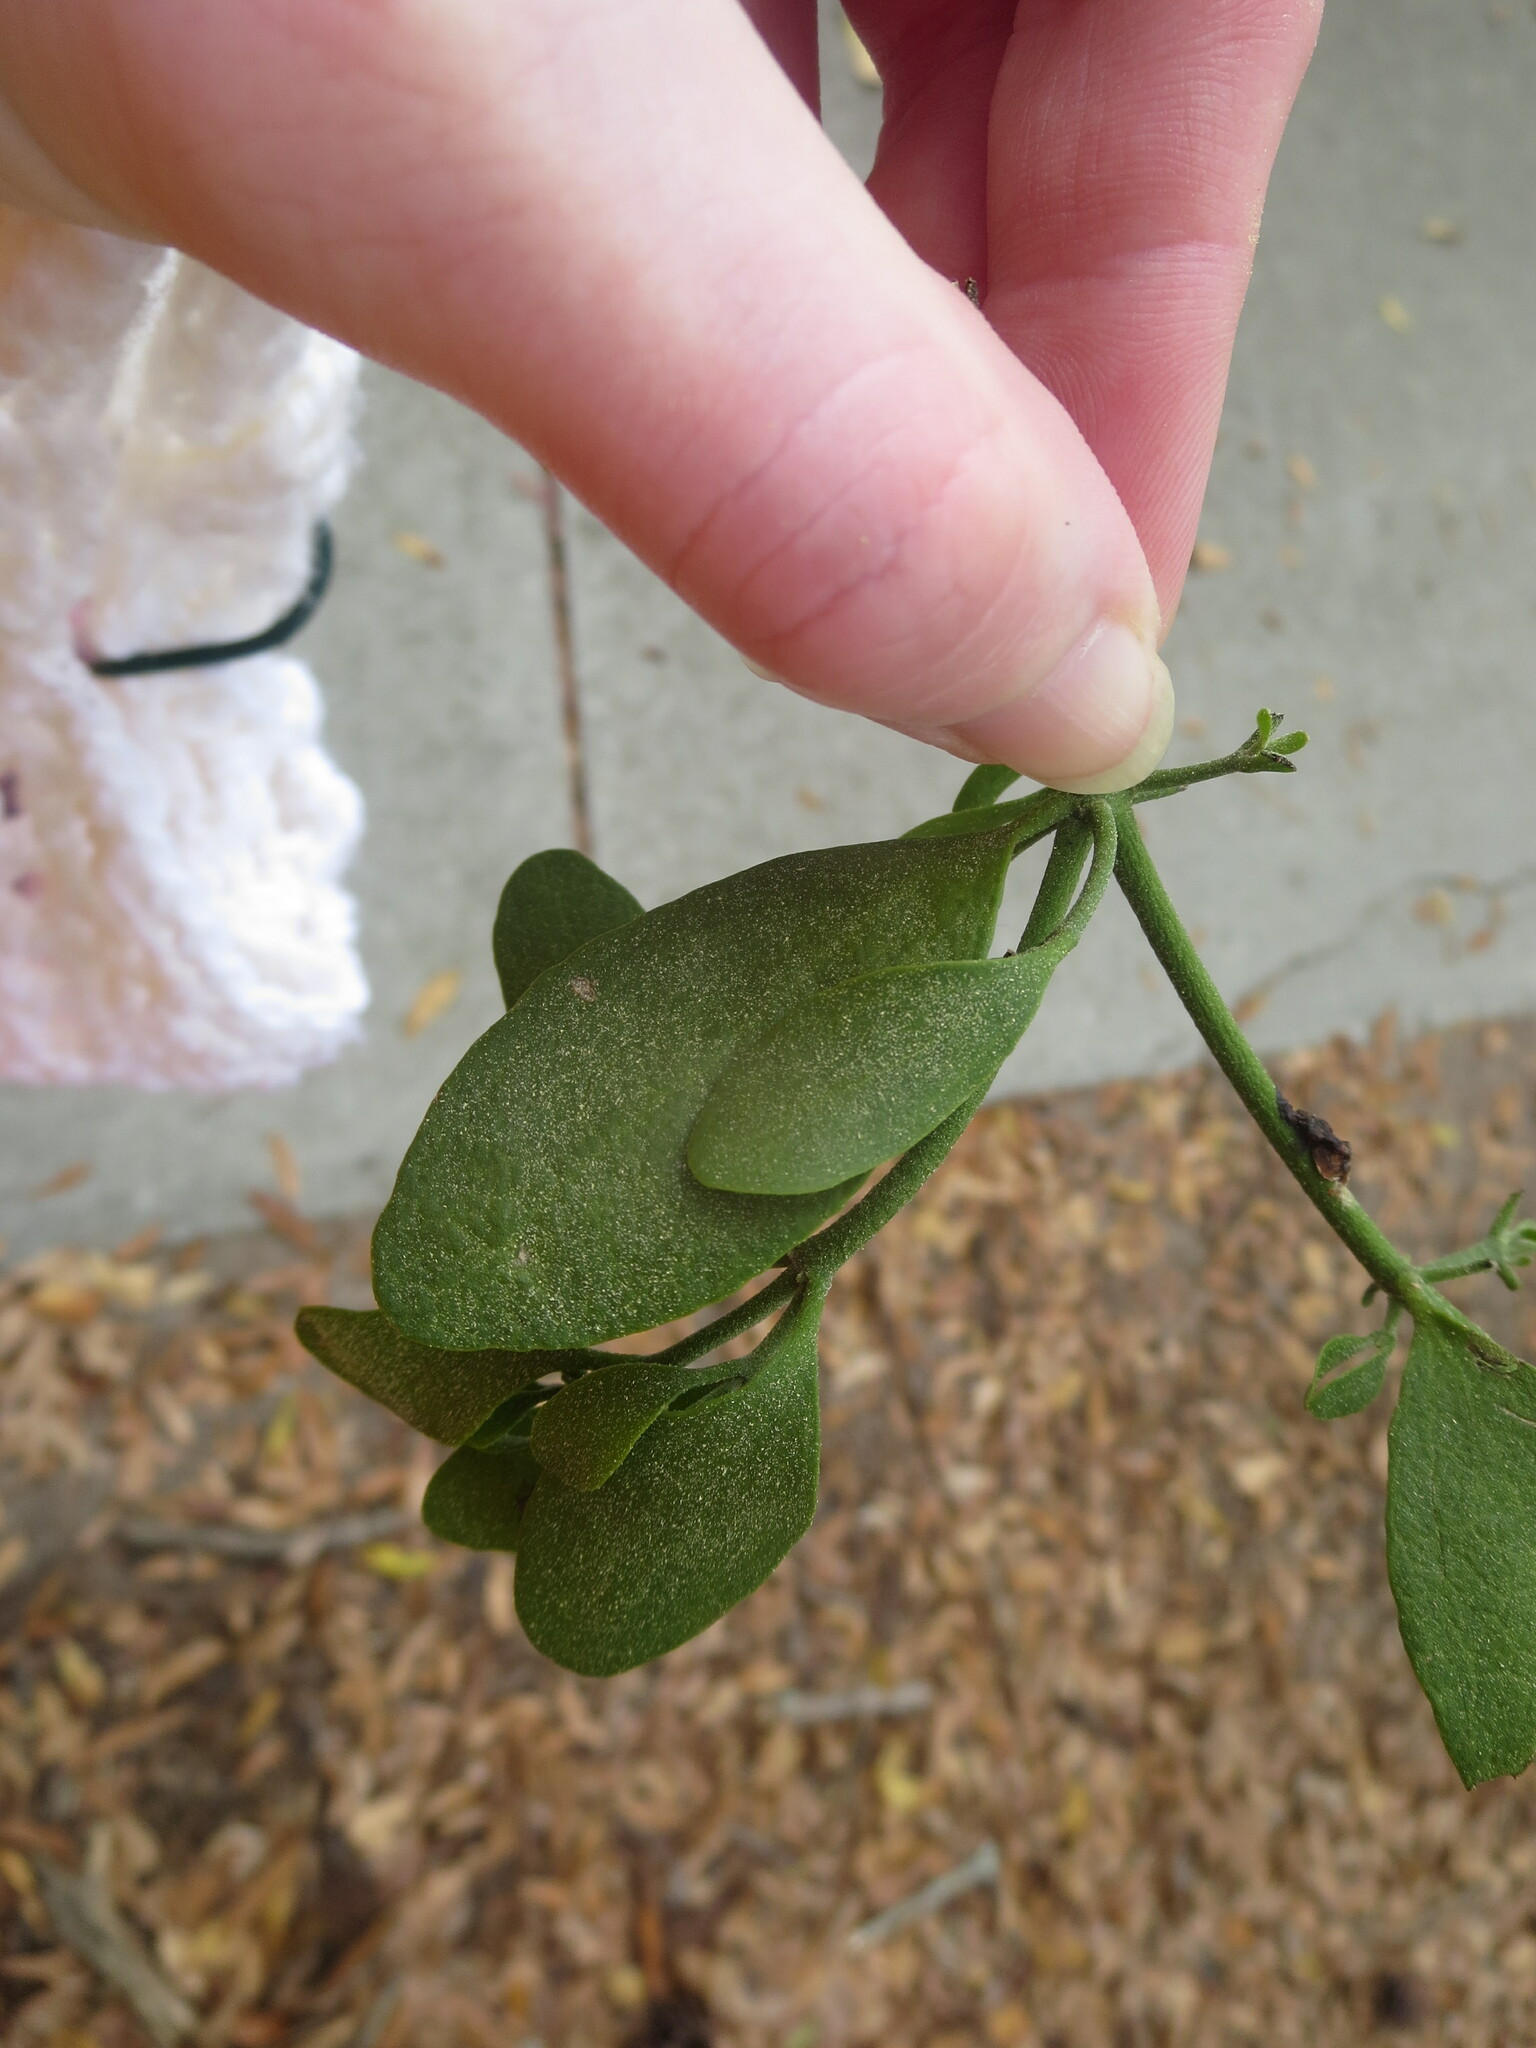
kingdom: Plantae
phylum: Tracheophyta
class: Magnoliopsida
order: Santalales
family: Viscaceae
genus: Phoradendron
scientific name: Phoradendron leucarpum
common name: Pacific mistletoe
